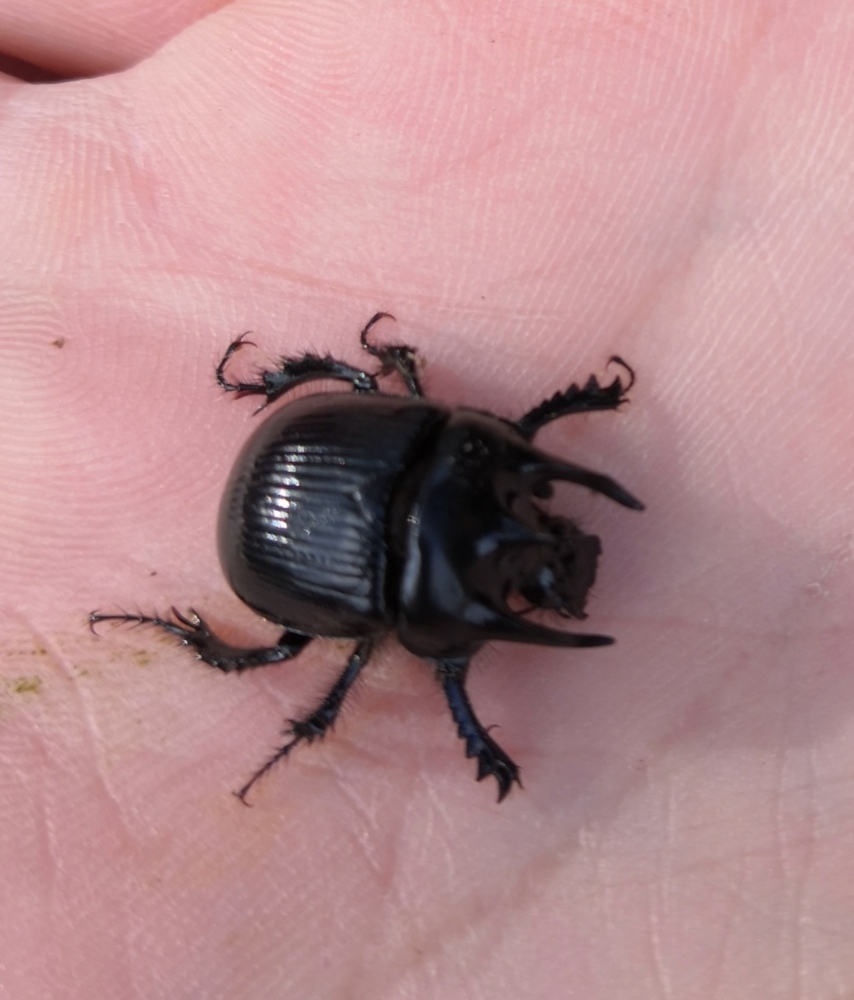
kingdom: Animalia
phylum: Arthropoda
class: Insecta
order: Coleoptera
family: Geotrupidae
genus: Typhaeus
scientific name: Typhaeus typhoeus
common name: Minotaur beetle
